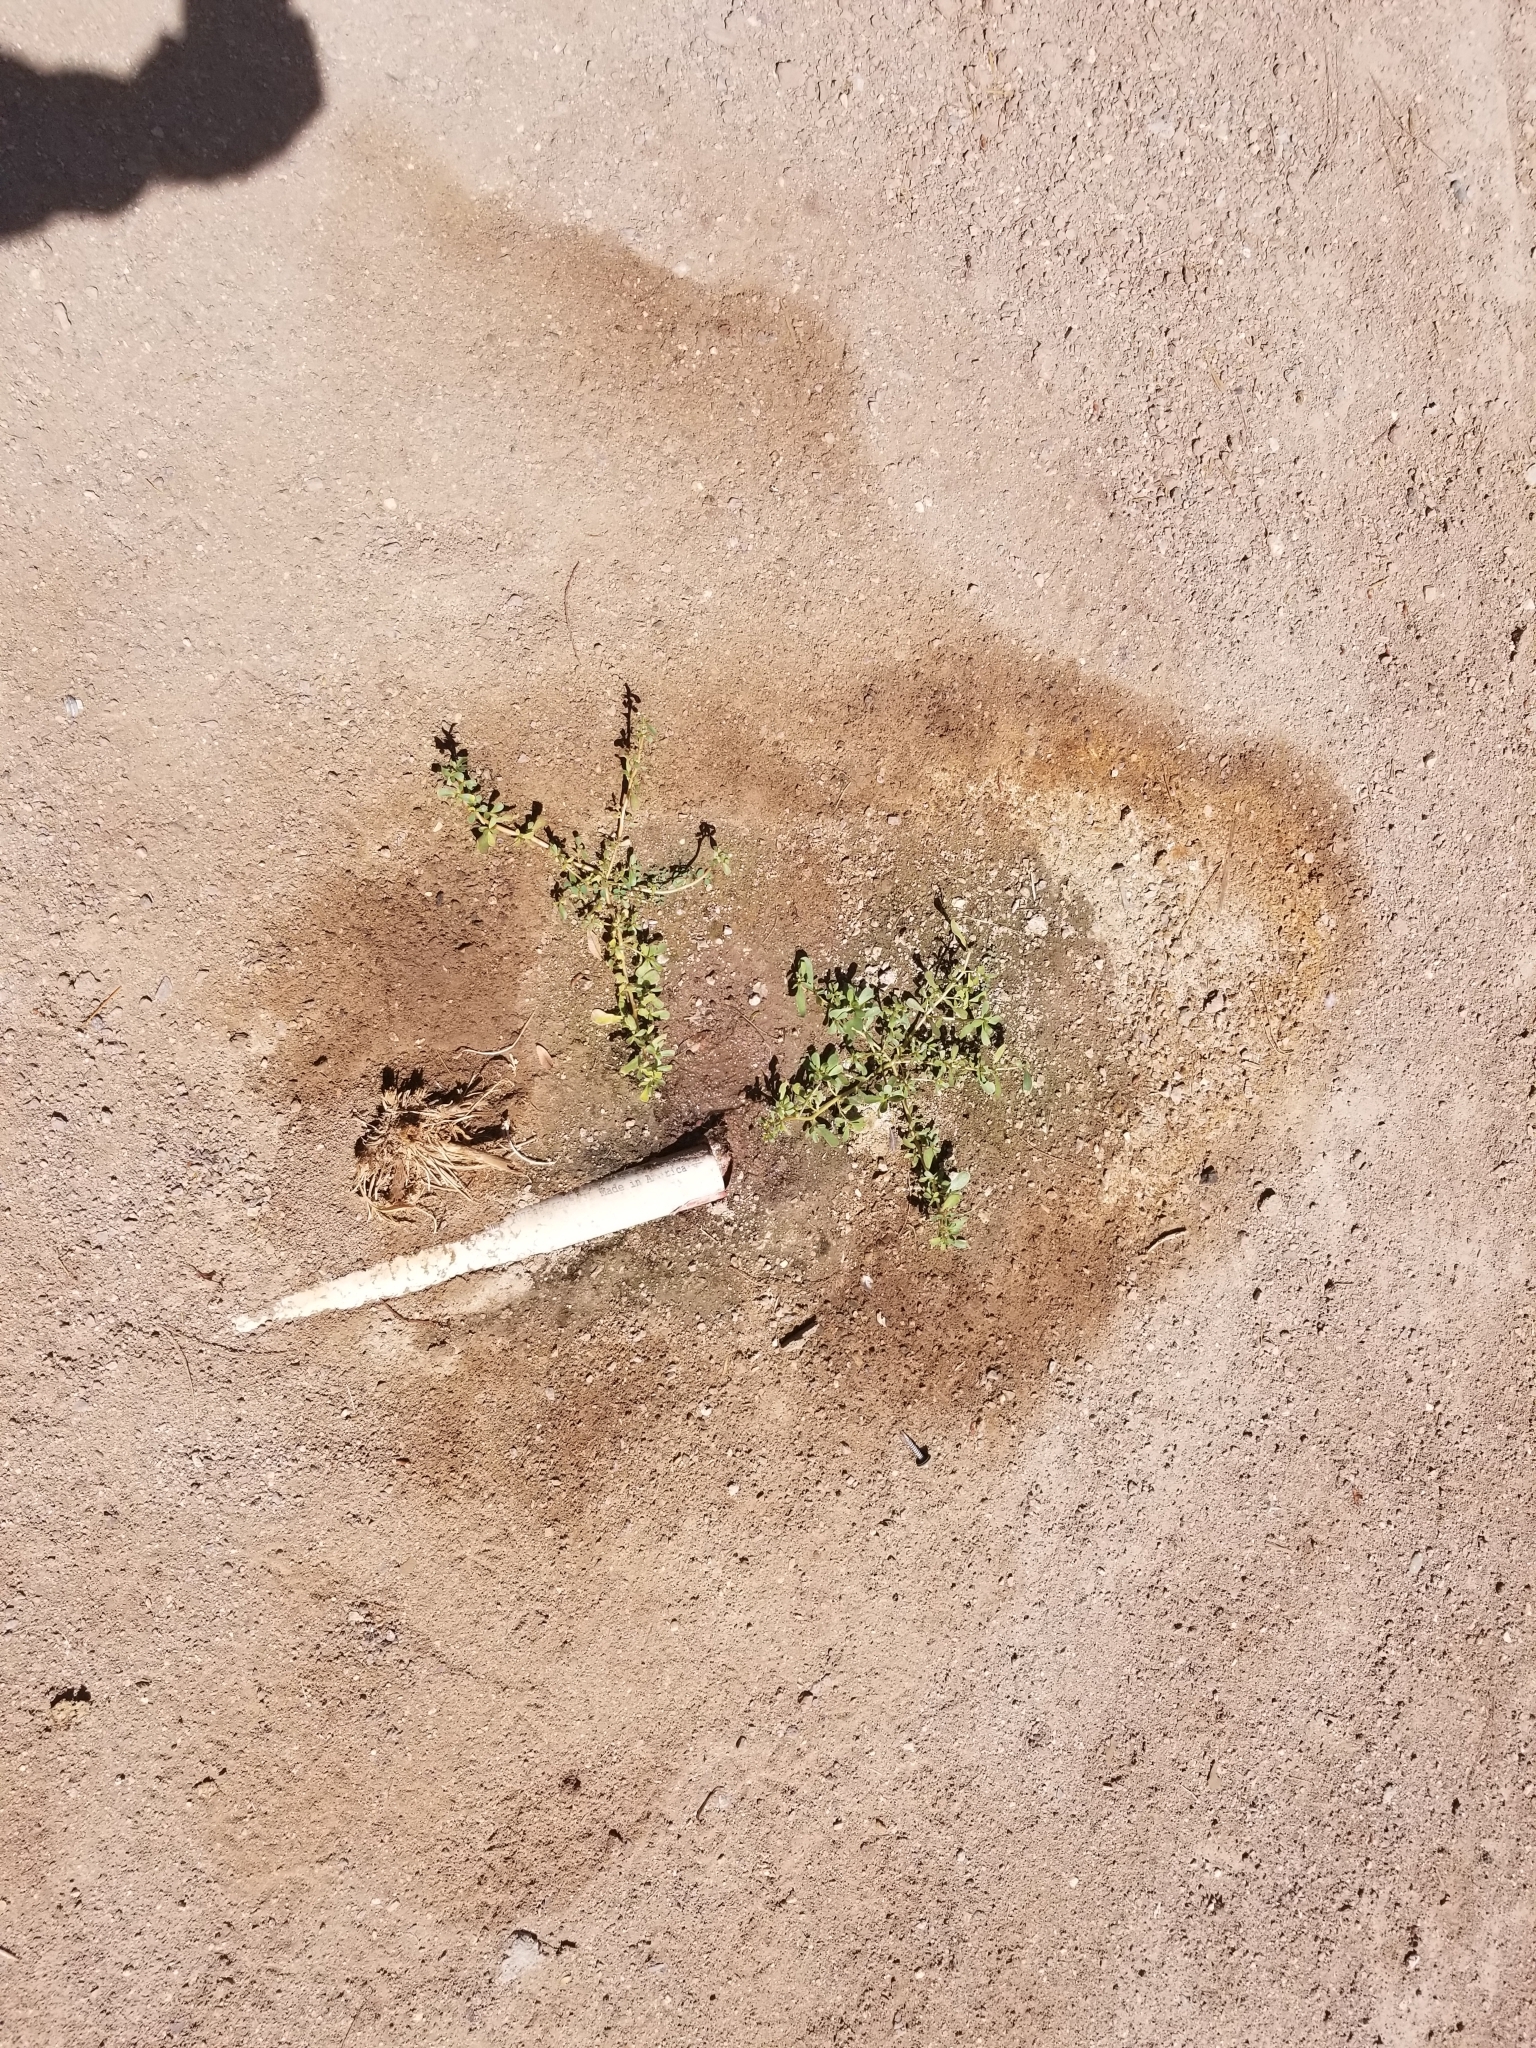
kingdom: Plantae
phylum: Tracheophyta
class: Magnoliopsida
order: Caryophyllales
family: Portulacaceae
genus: Portulaca
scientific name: Portulaca oleracea
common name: Common purslane
